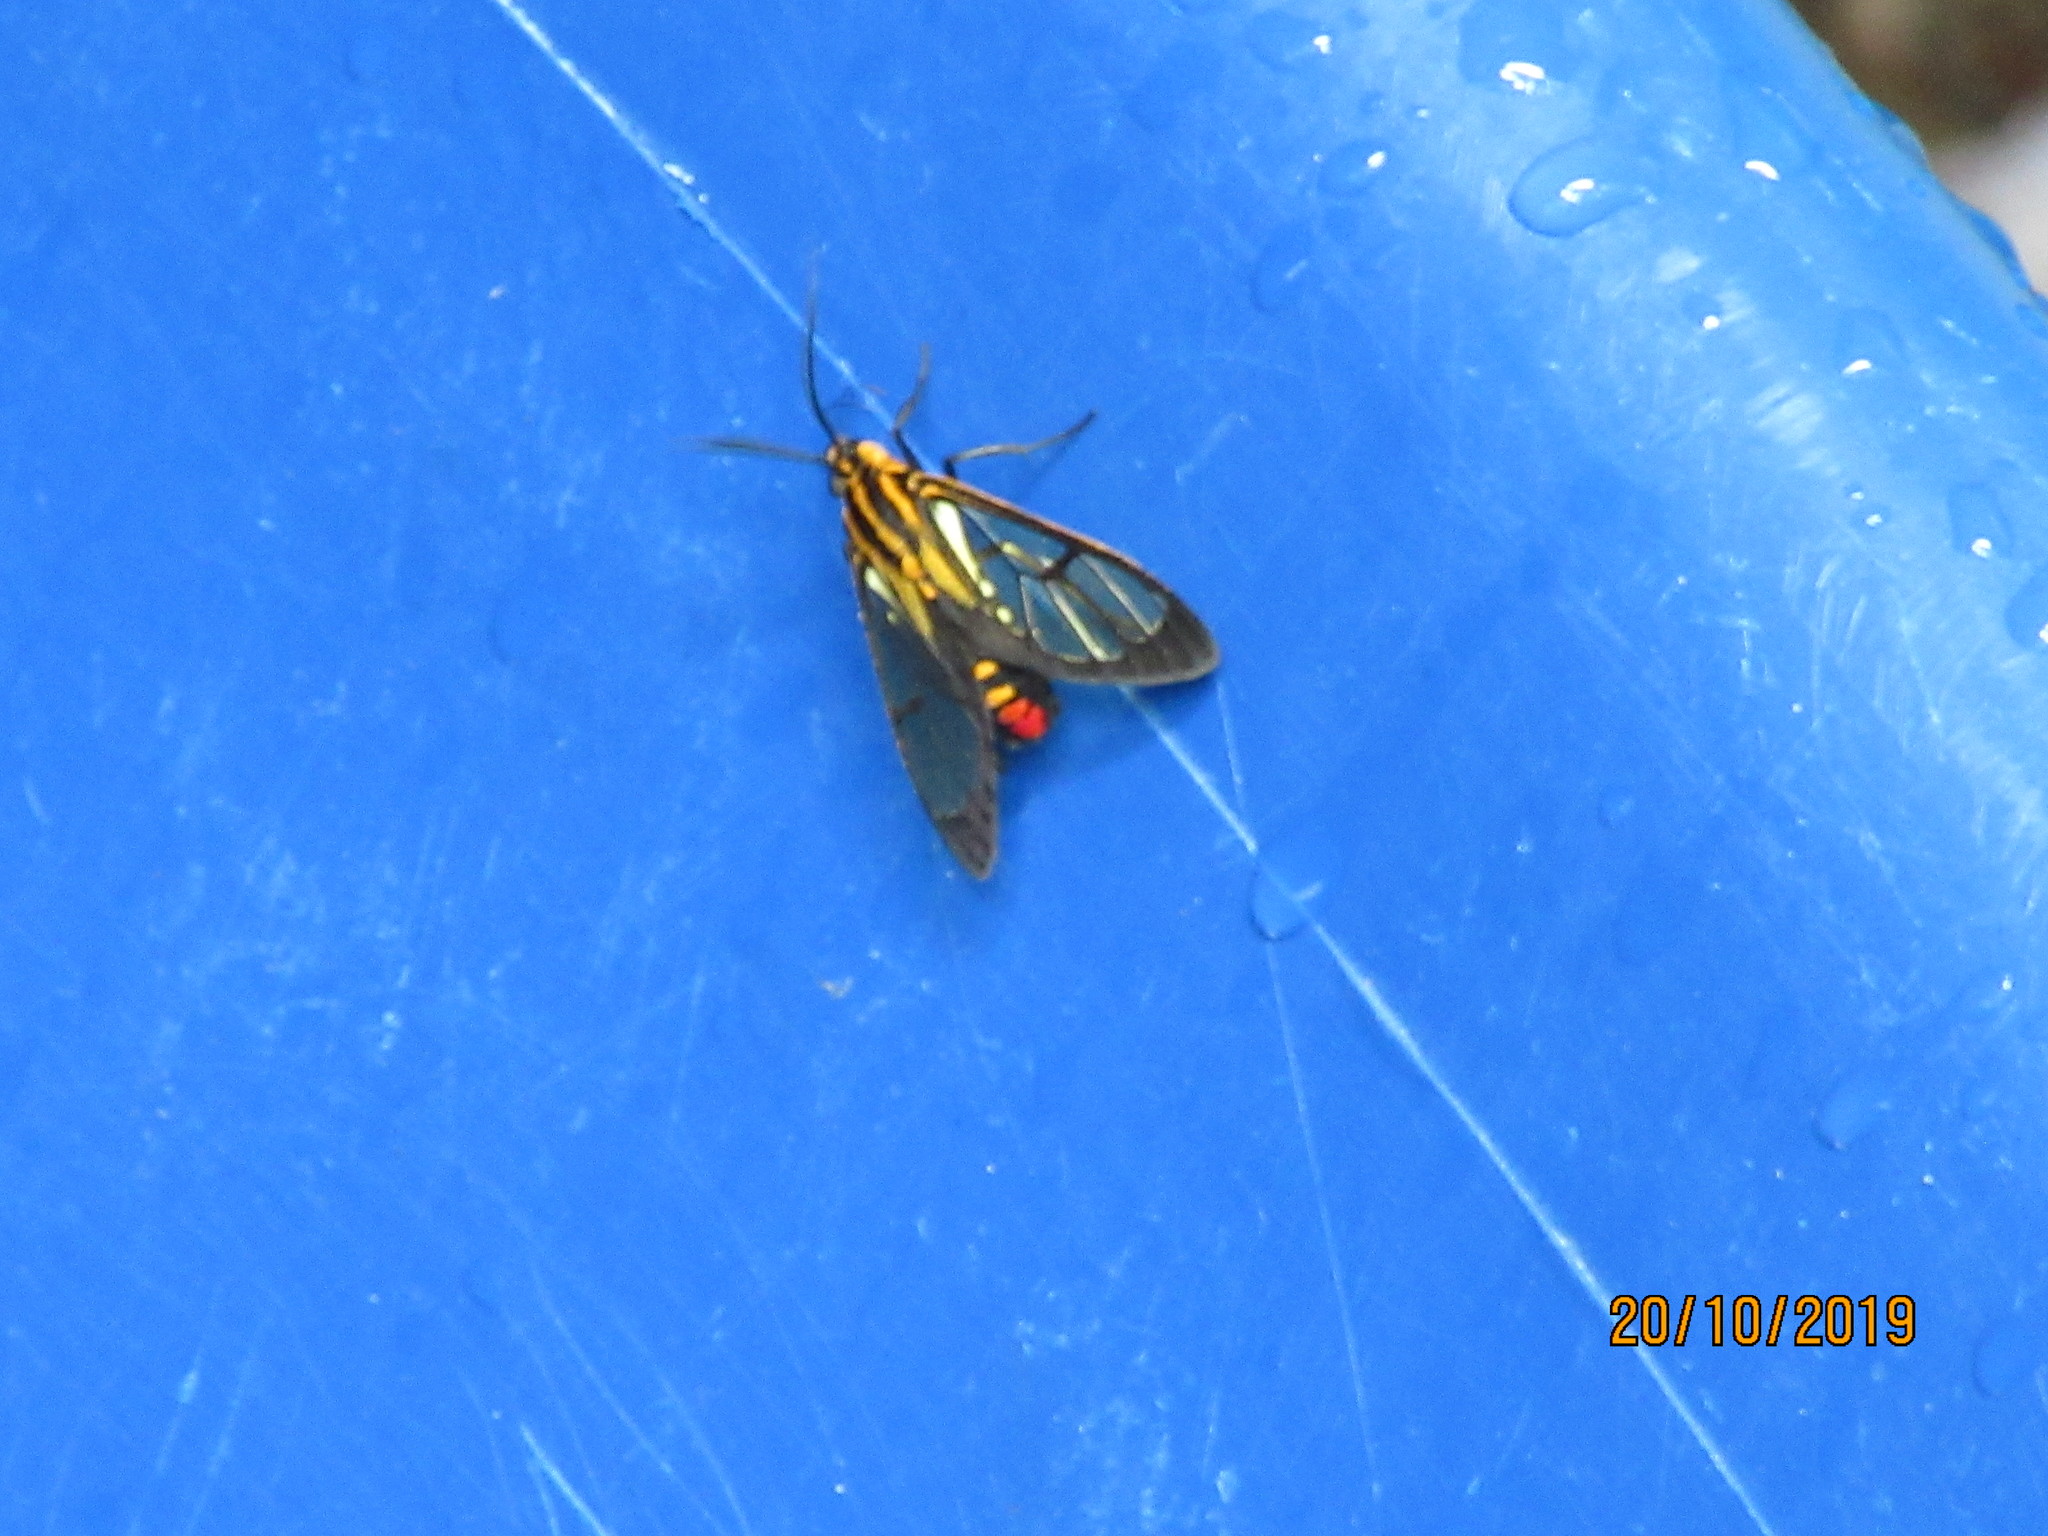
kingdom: Animalia
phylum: Arthropoda
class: Insecta
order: Lepidoptera
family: Erebidae
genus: Paraethria
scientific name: Paraethria flavosignata
